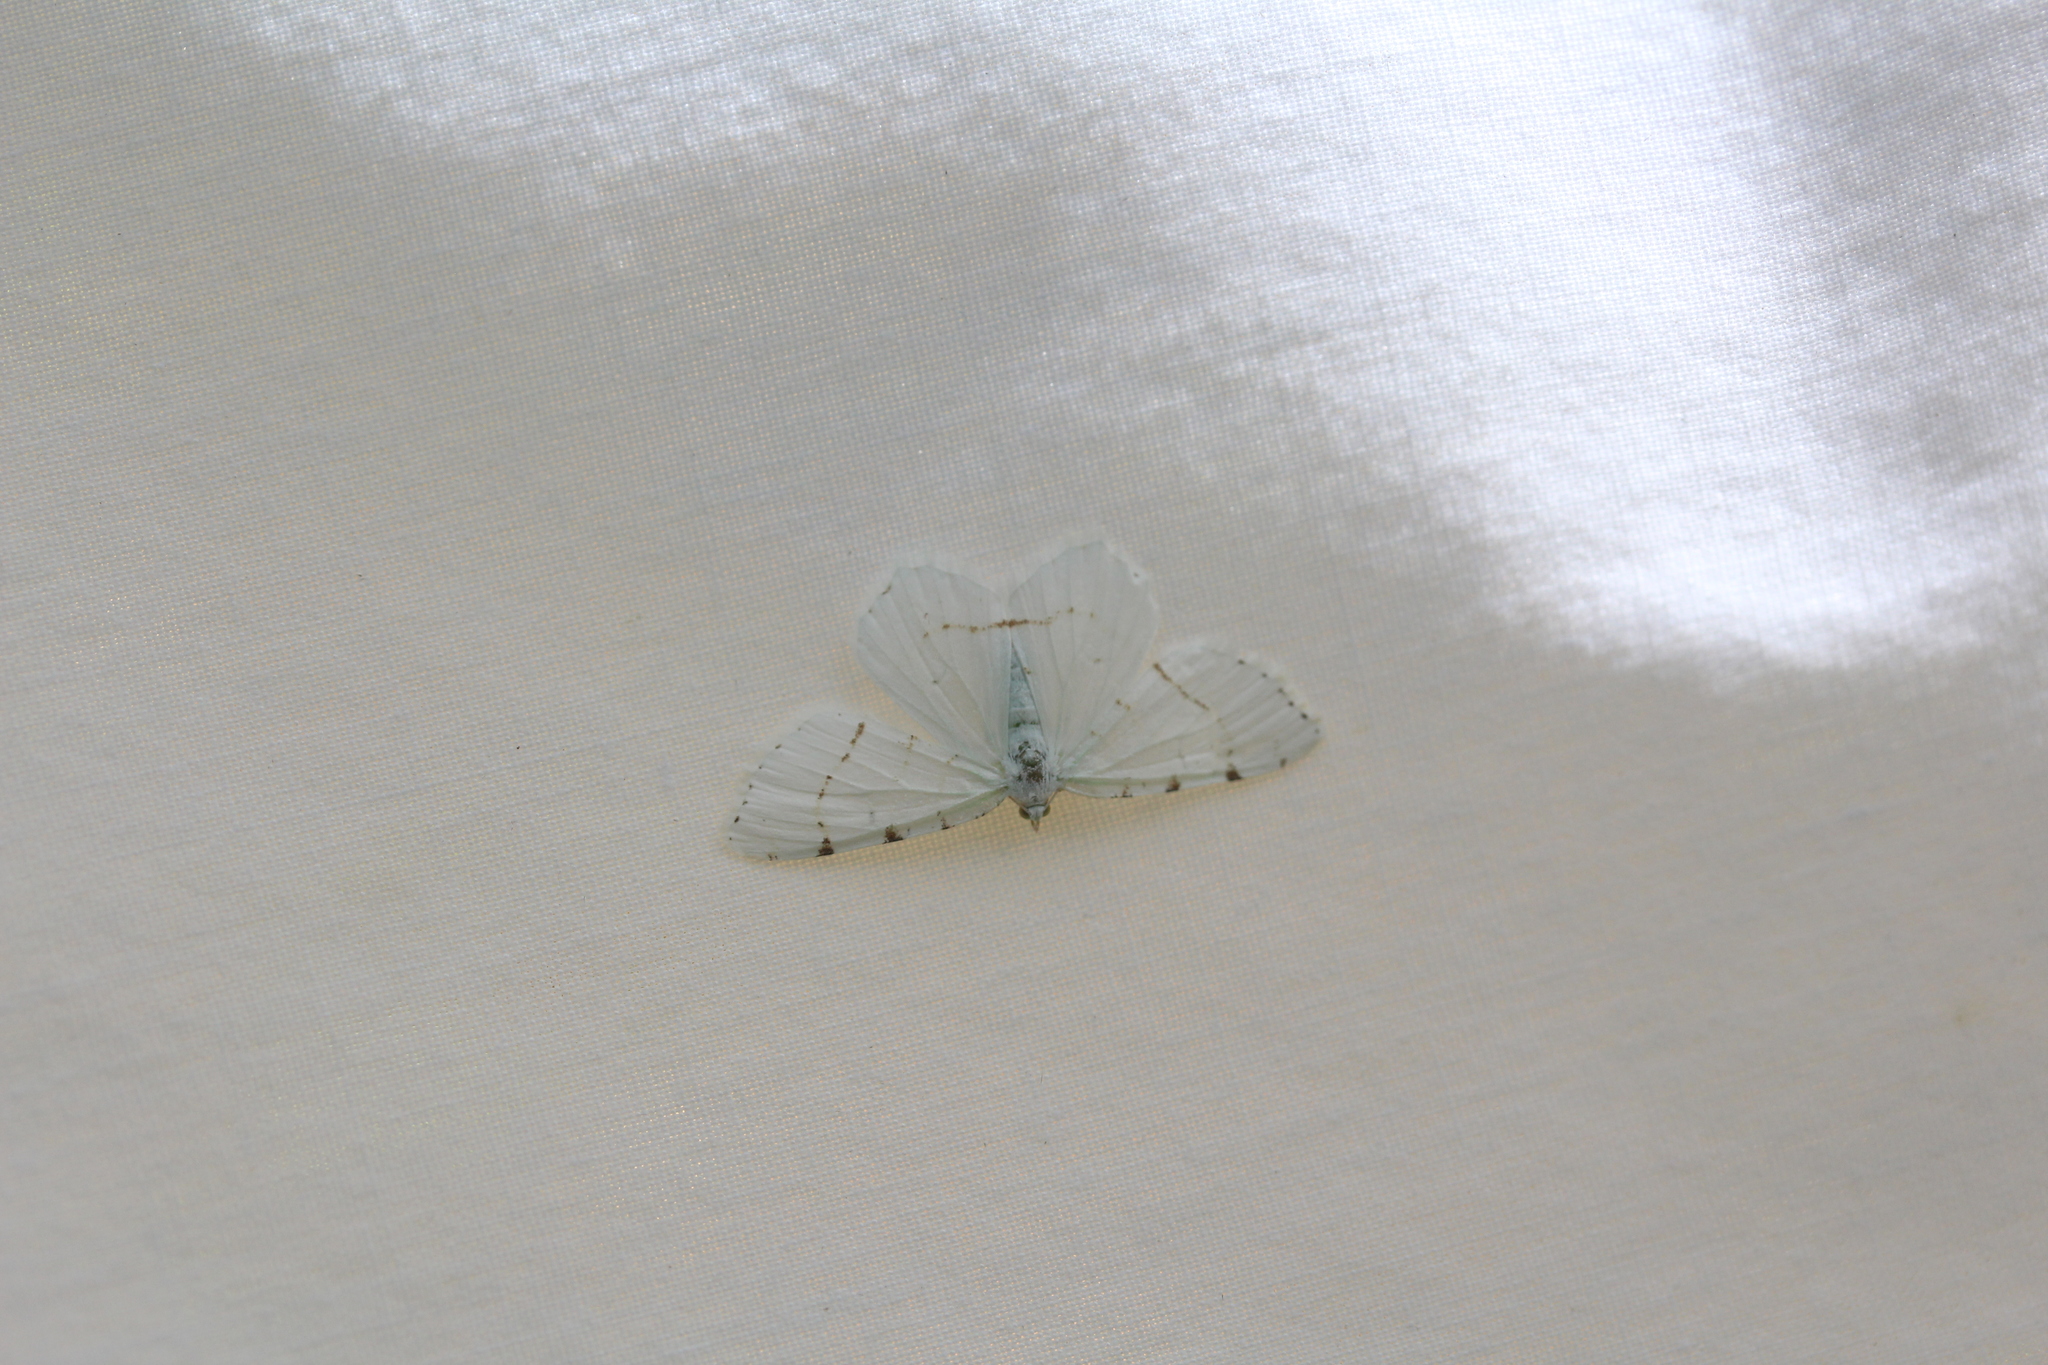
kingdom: Animalia
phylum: Arthropoda
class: Insecta
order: Lepidoptera
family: Geometridae
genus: Macaria
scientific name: Macaria pustularia
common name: Lesser maple spanworm moth
